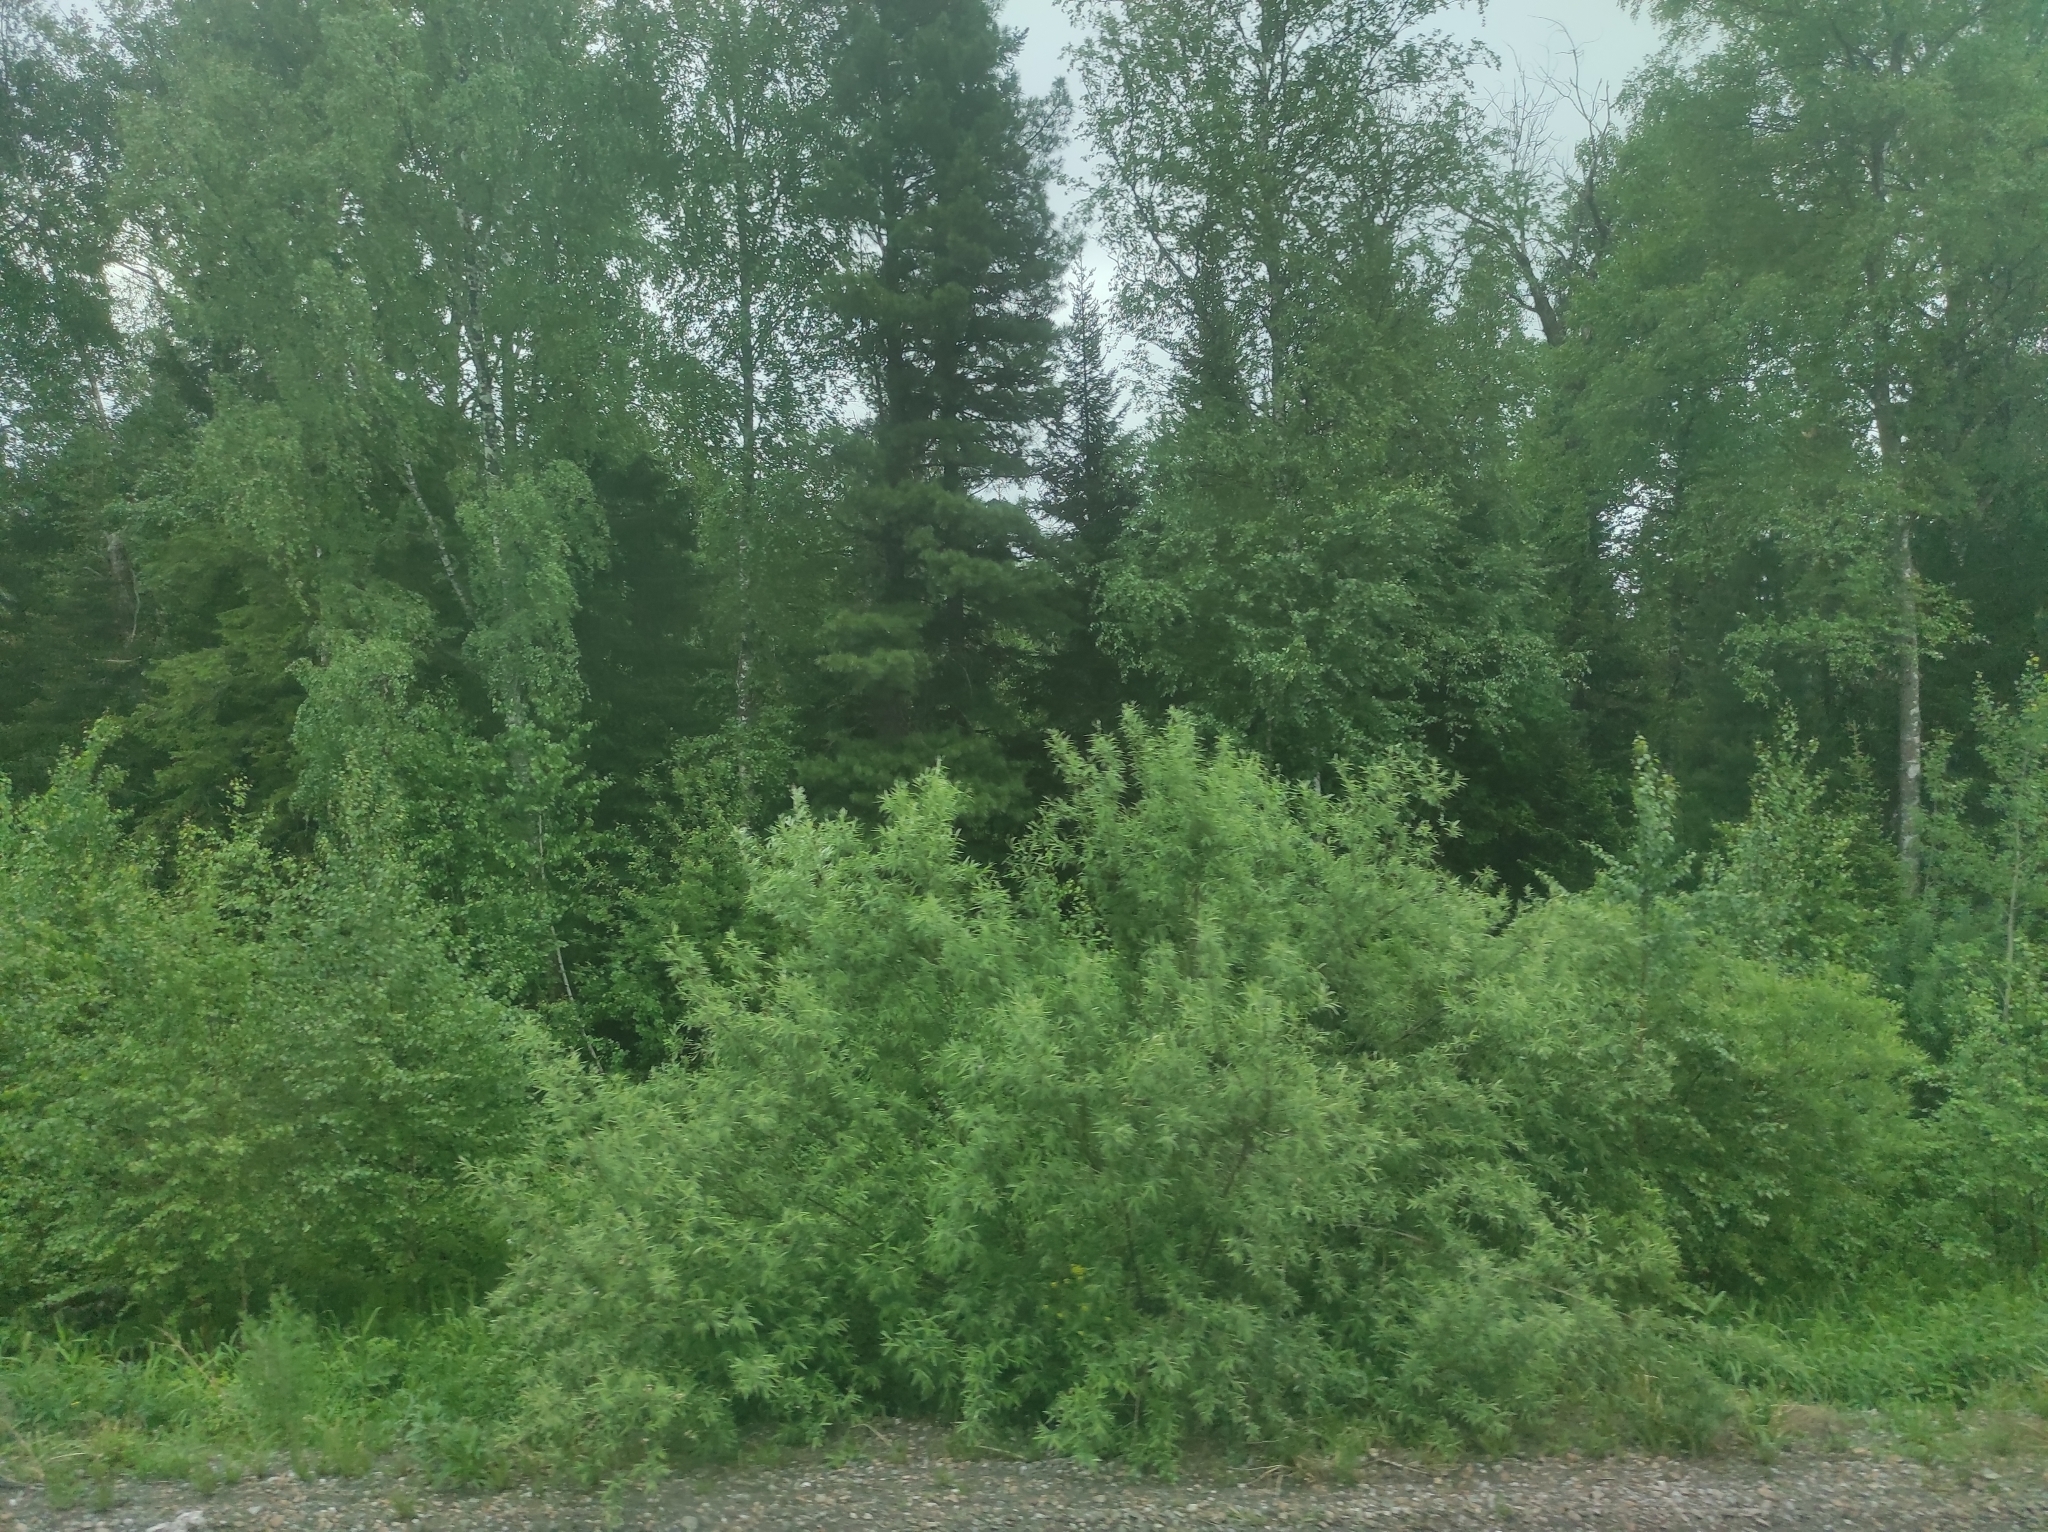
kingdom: Plantae
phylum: Tracheophyta
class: Pinopsida
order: Pinales
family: Pinaceae
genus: Pinus
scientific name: Pinus sibirica
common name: Siberian pine
